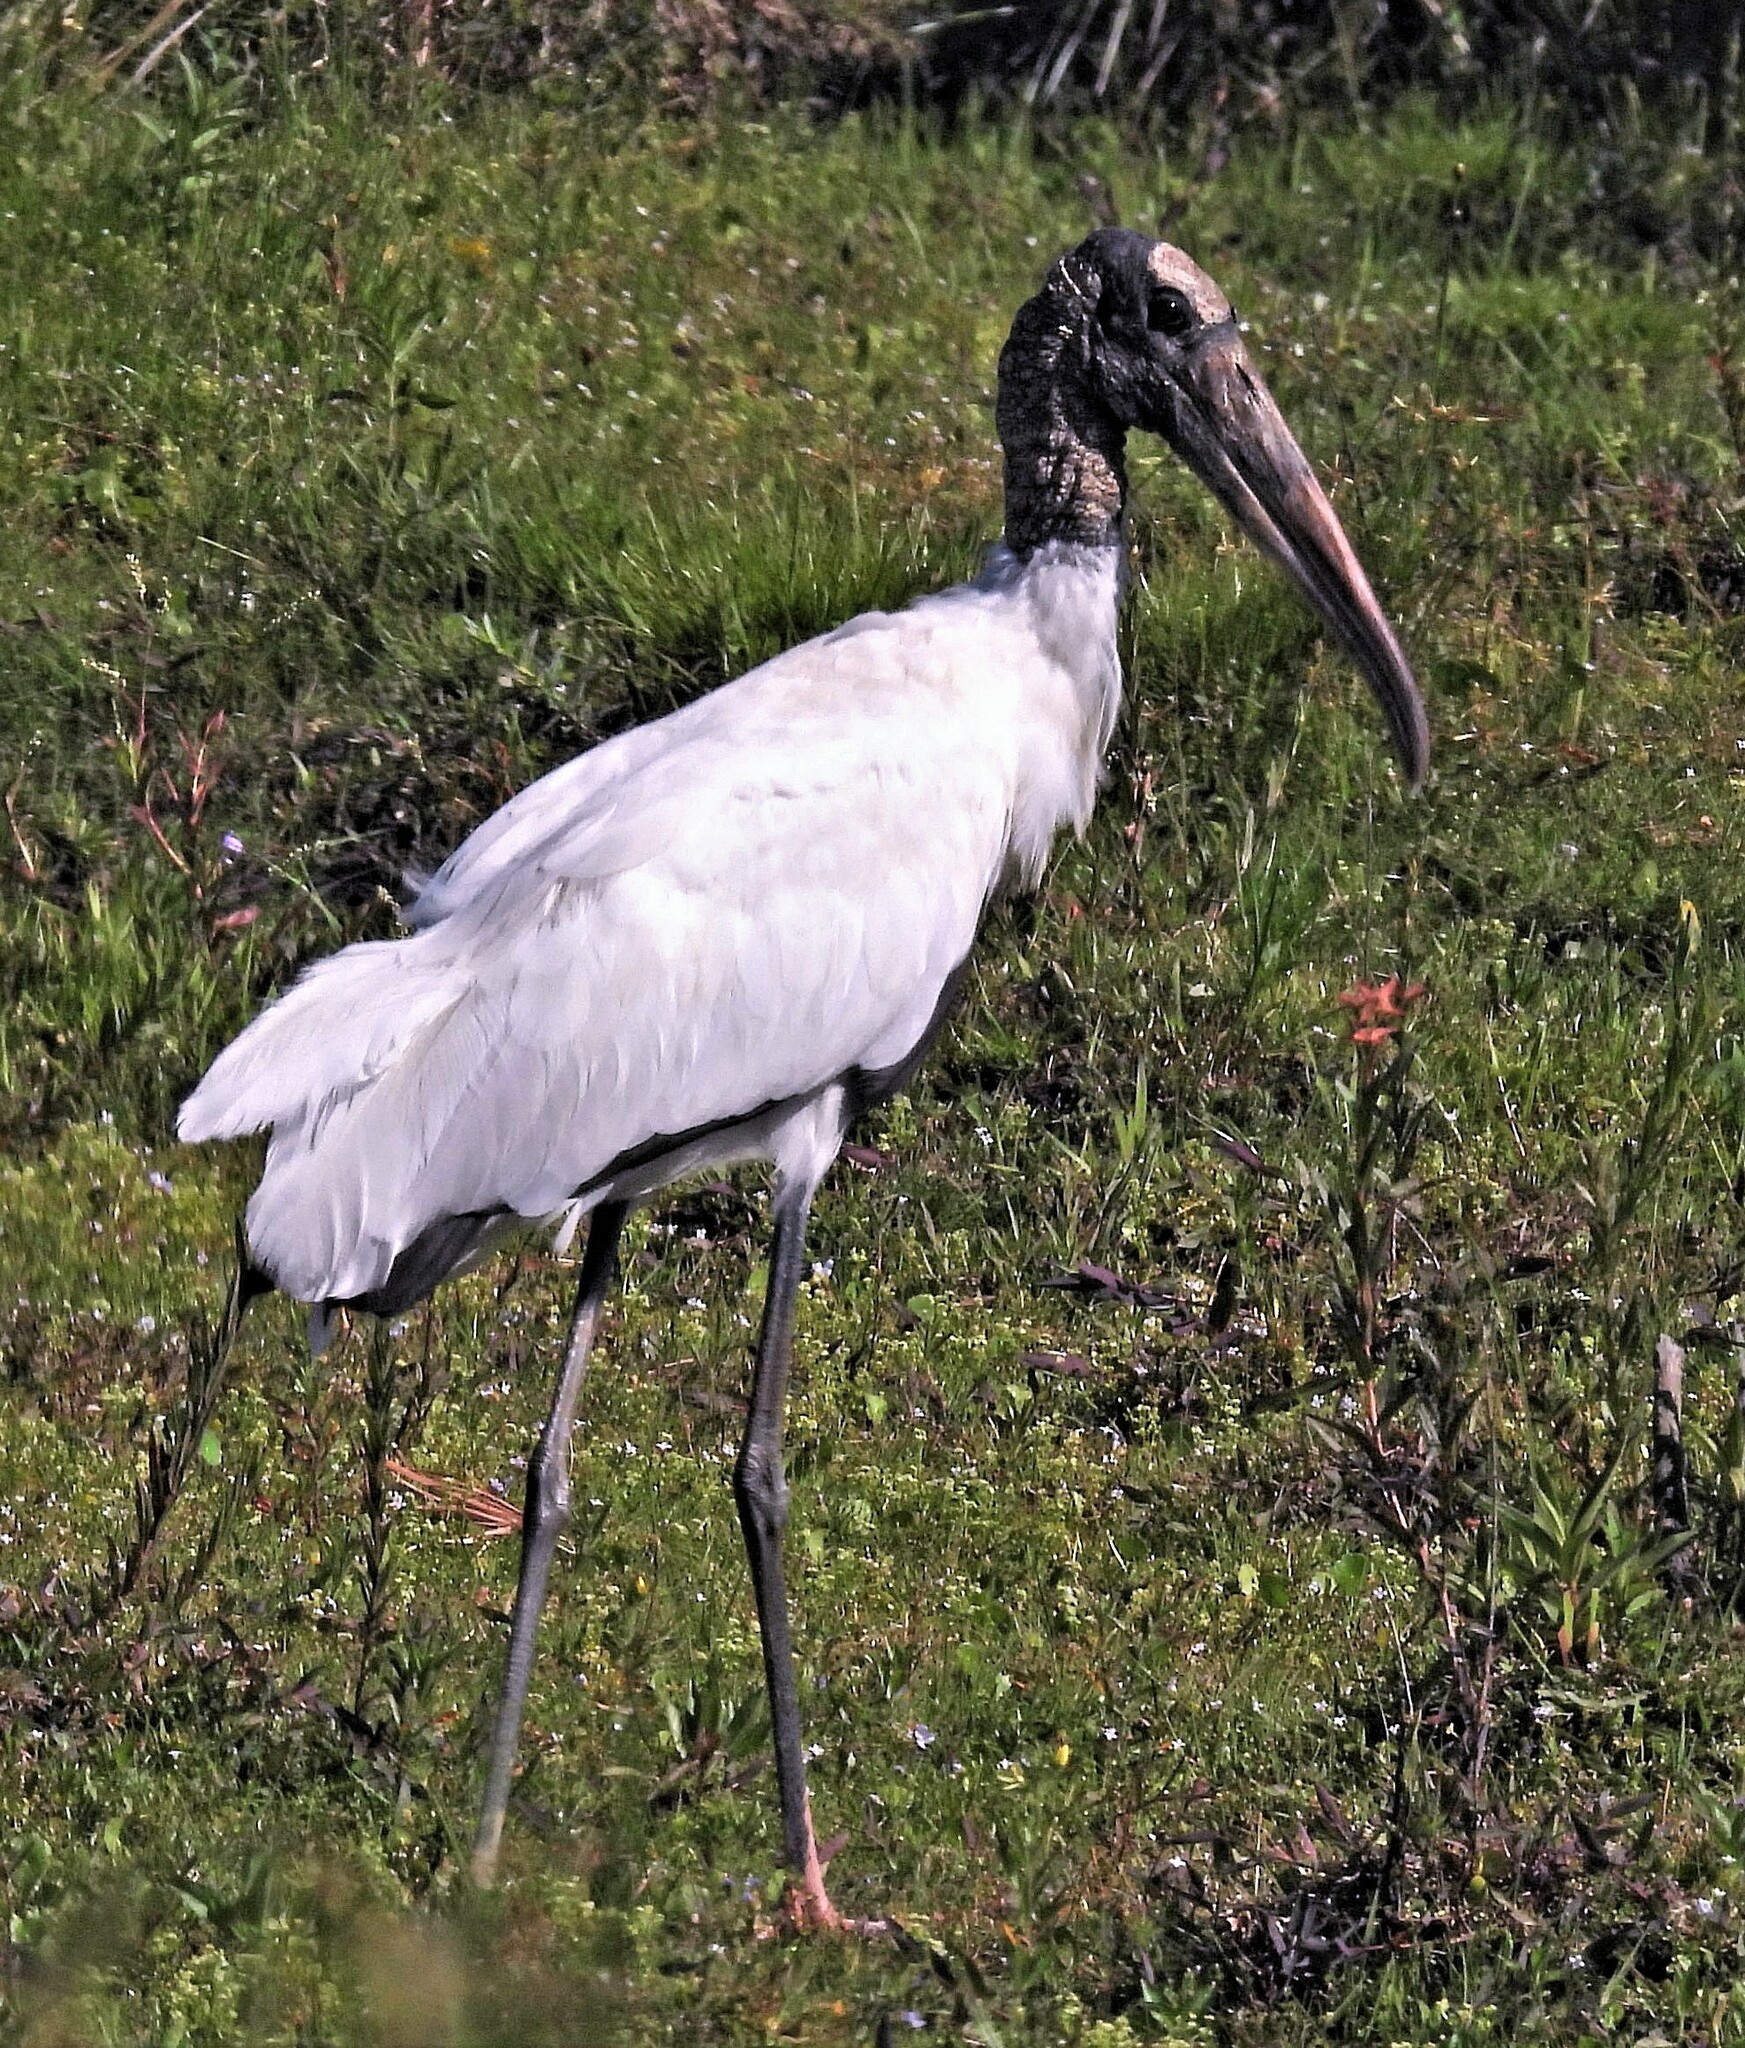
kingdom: Animalia
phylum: Chordata
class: Aves
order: Ciconiiformes
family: Ciconiidae
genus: Mycteria
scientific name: Mycteria americana
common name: Wood stork
